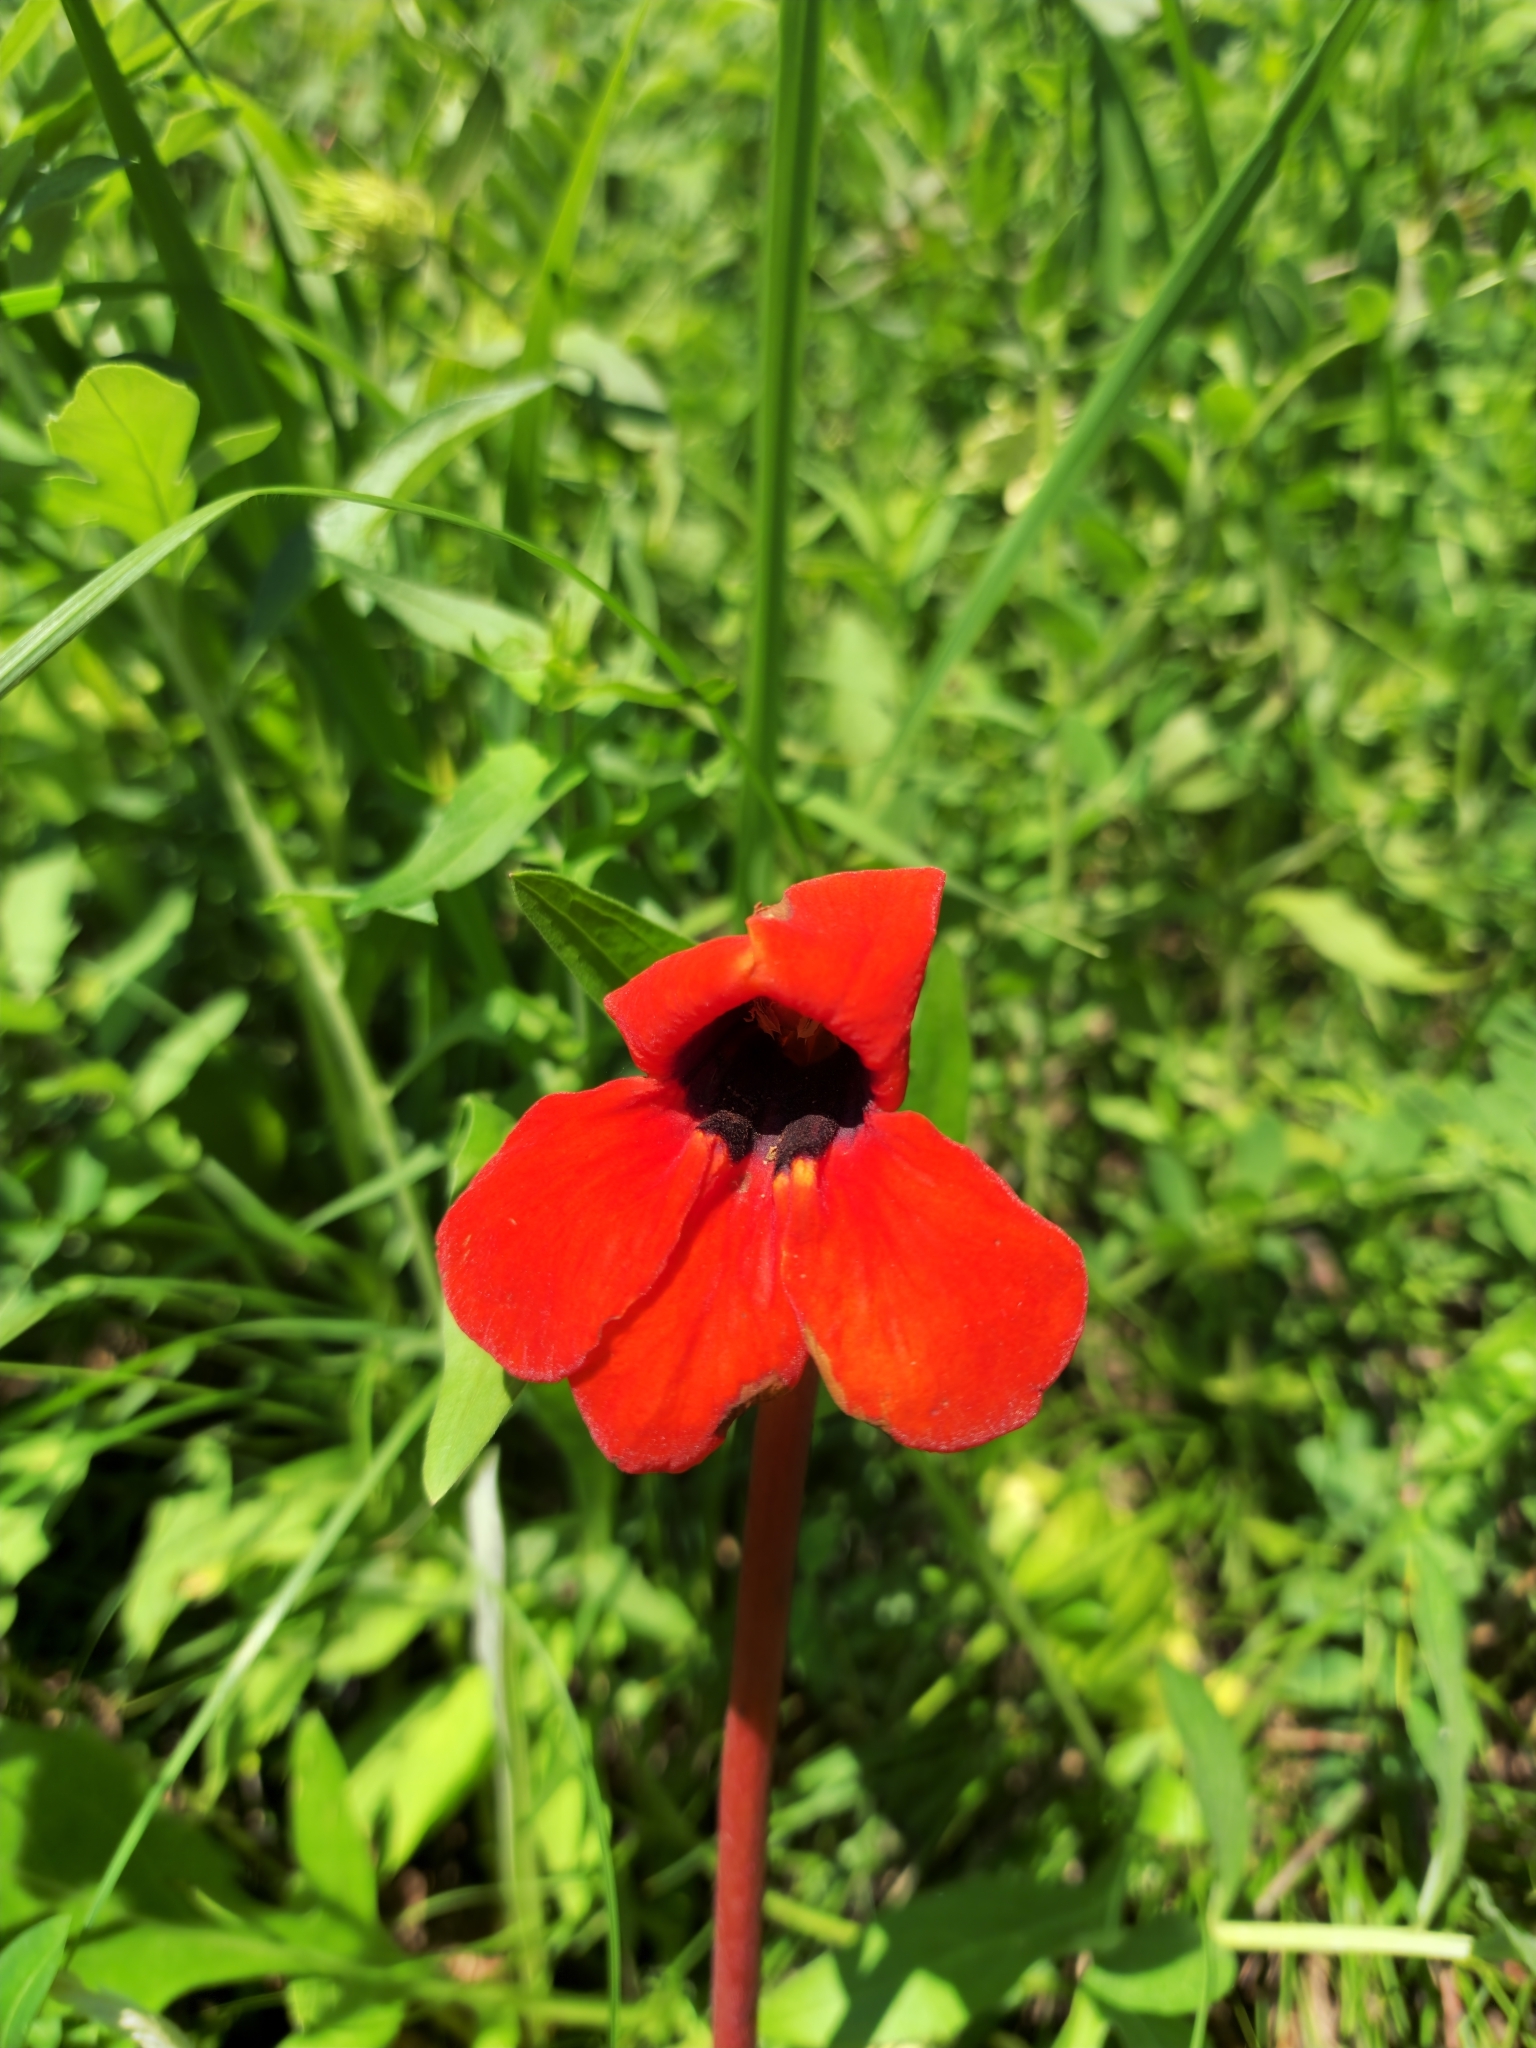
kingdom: Plantae
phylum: Tracheophyta
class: Magnoliopsida
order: Lamiales
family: Orobanchaceae
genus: Diphelypaea
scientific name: Diphelypaea coccinea
